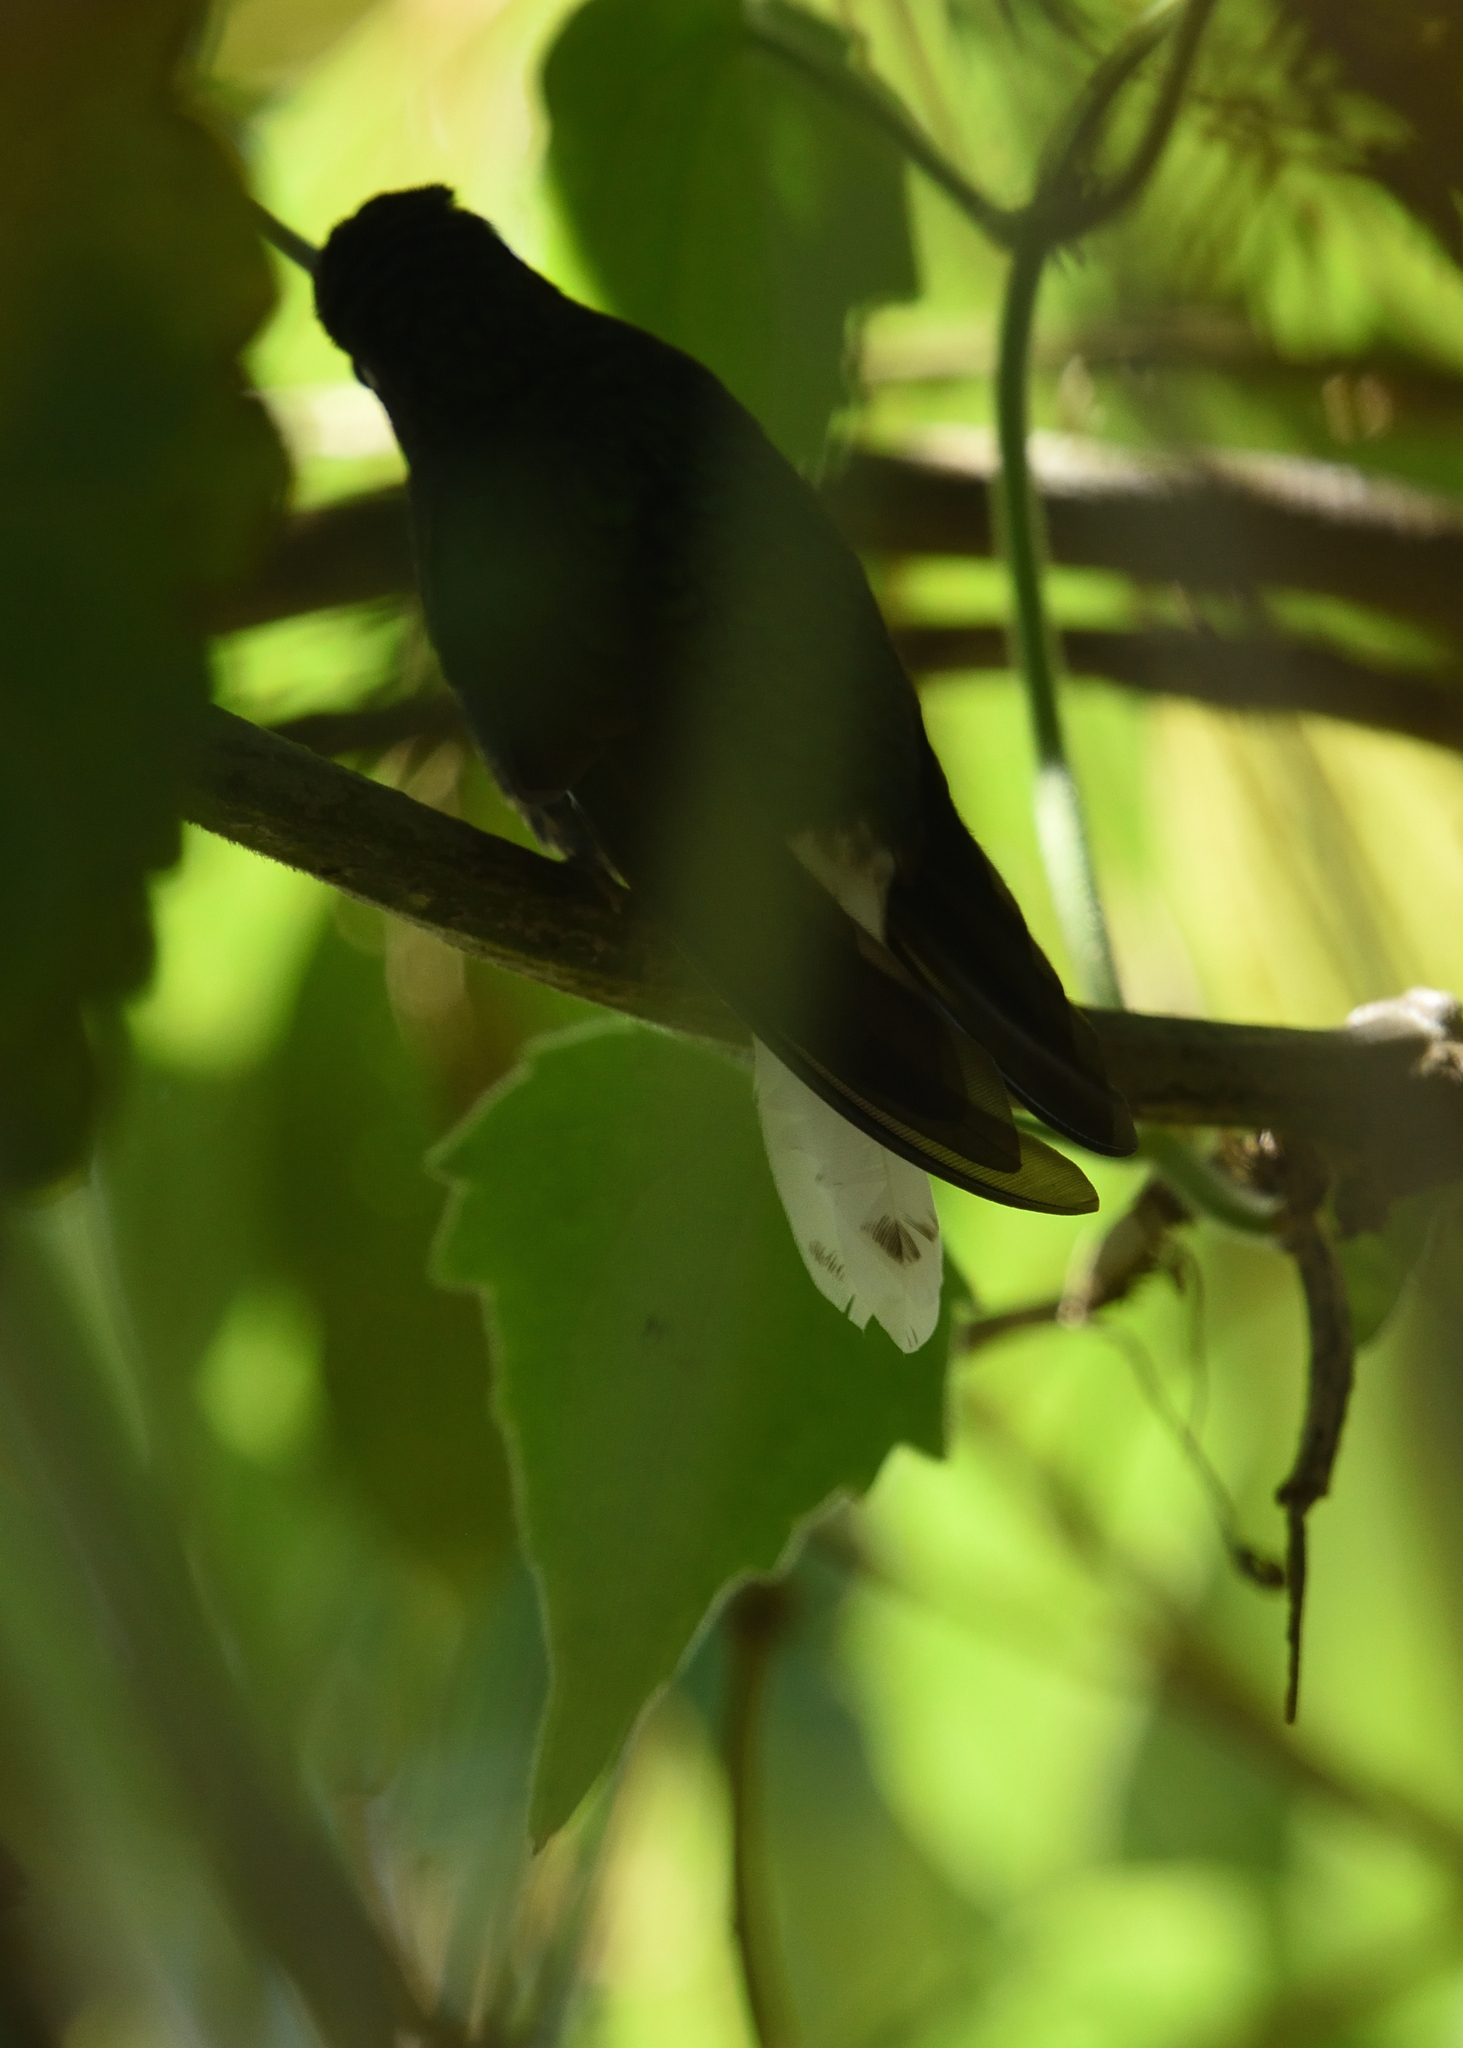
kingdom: Animalia
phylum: Chordata
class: Aves
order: Apodiformes
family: Trochilidae
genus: Coeligena
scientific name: Coeligena phalerata
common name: White-tailed starfrontlet
